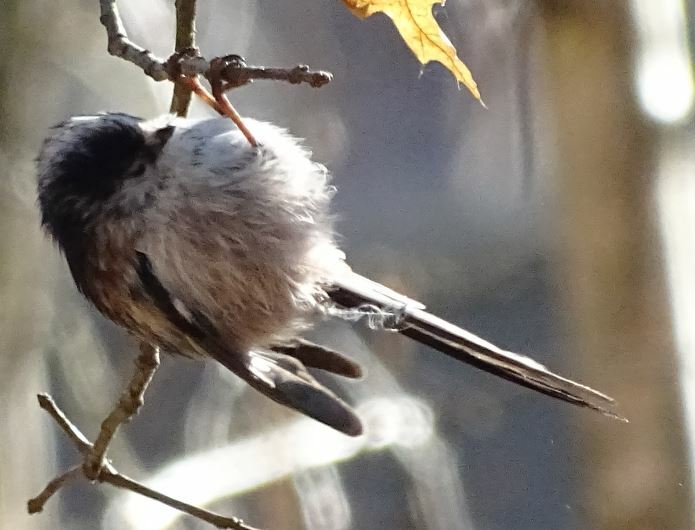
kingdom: Animalia
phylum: Chordata
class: Aves
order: Passeriformes
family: Aegithalidae
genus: Aegithalos
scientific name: Aegithalos caudatus
